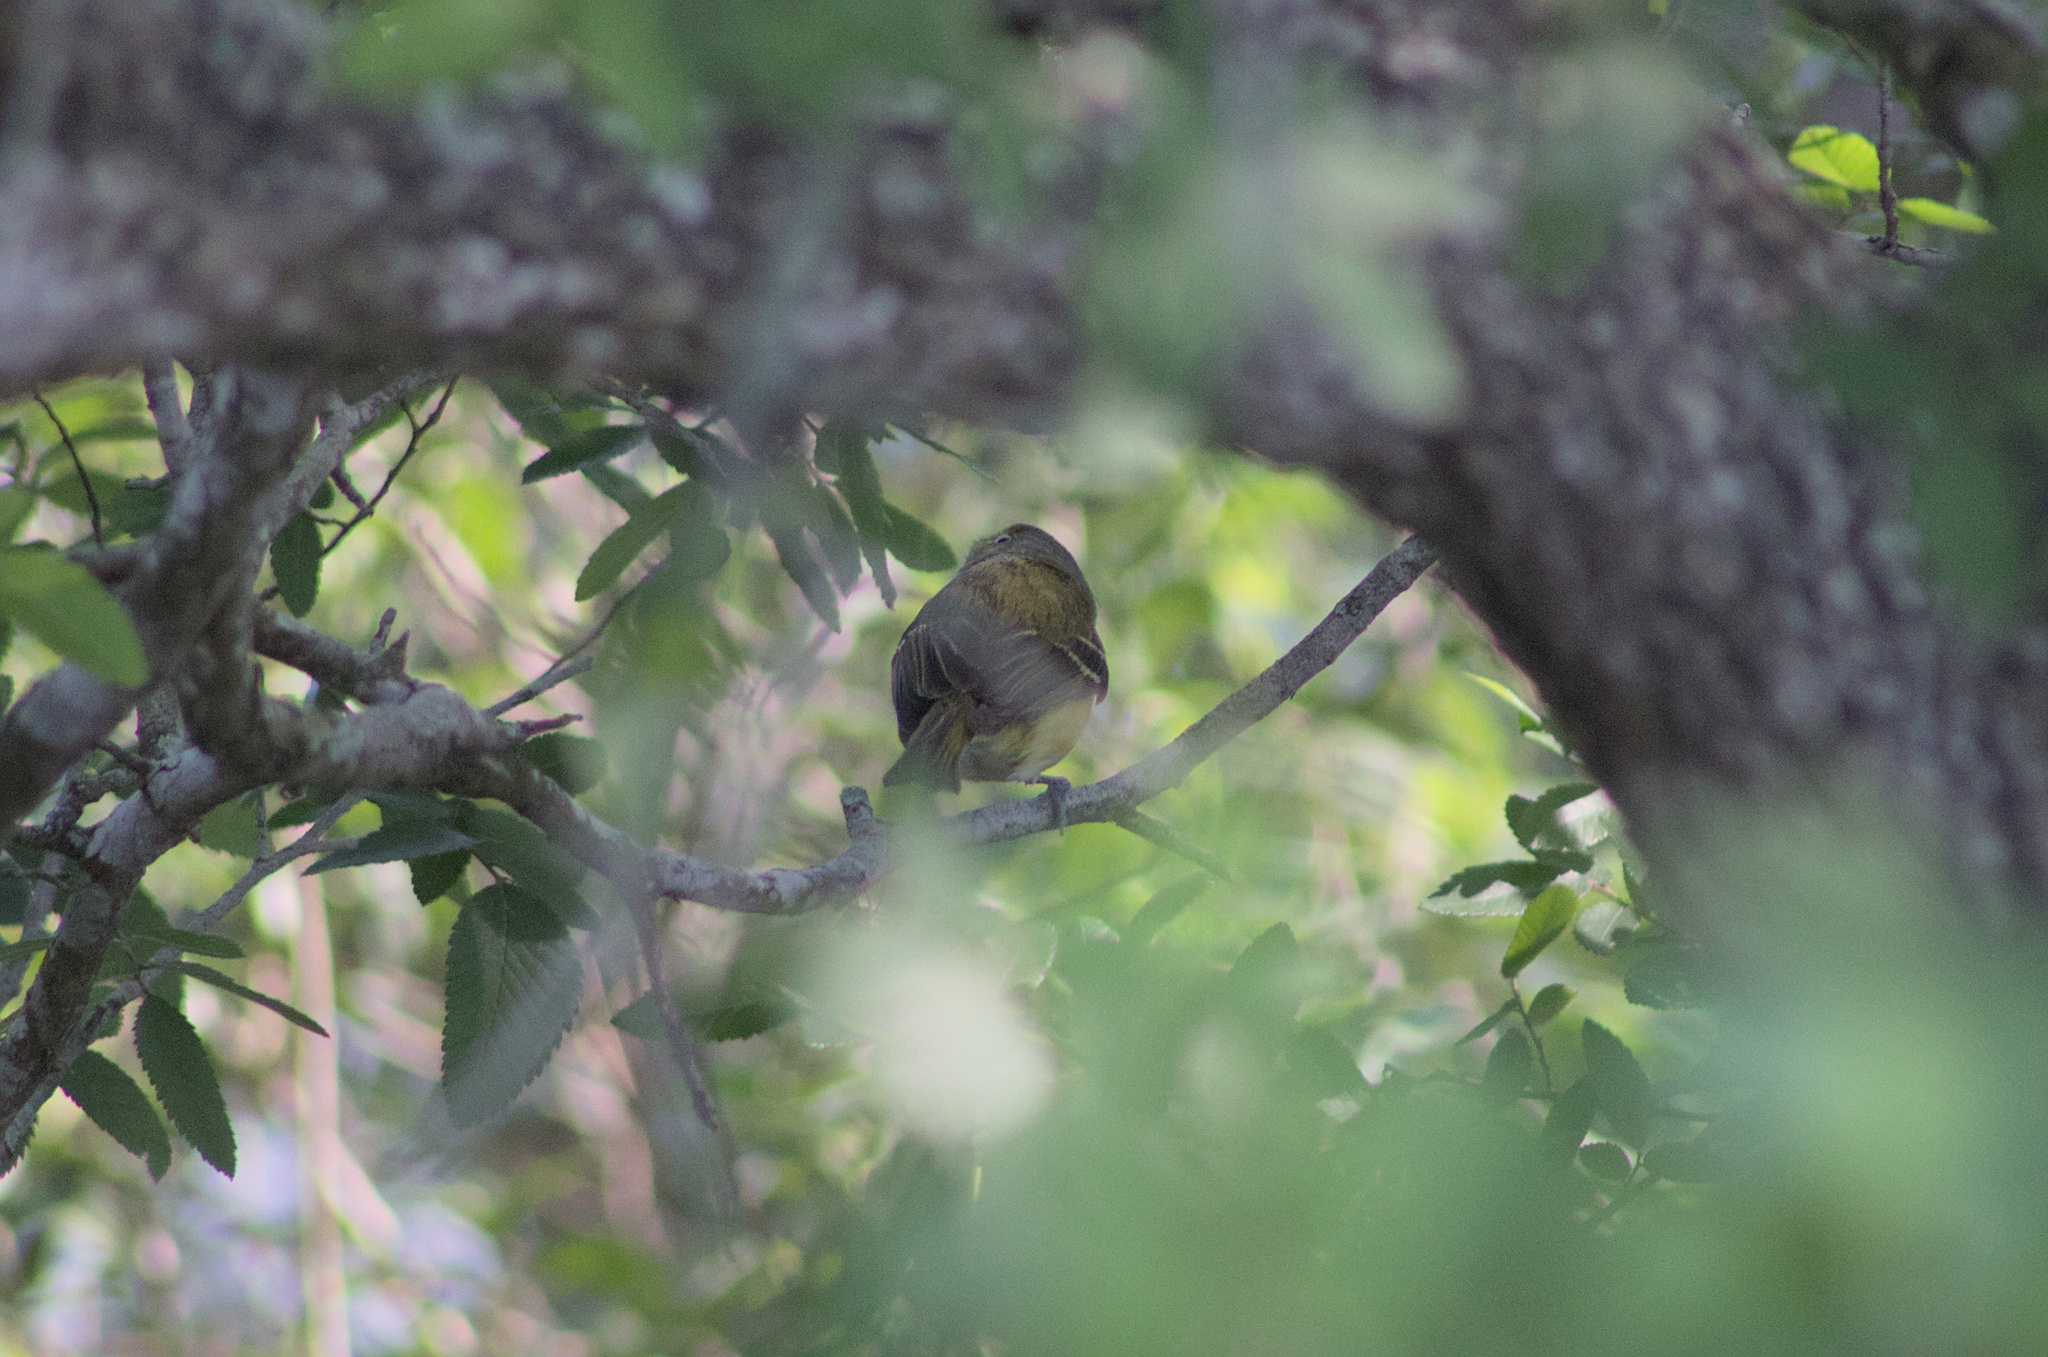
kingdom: Animalia
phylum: Chordata
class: Aves
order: Passeriformes
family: Vireonidae
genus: Vireo
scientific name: Vireo griseus
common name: White-eyed vireo
